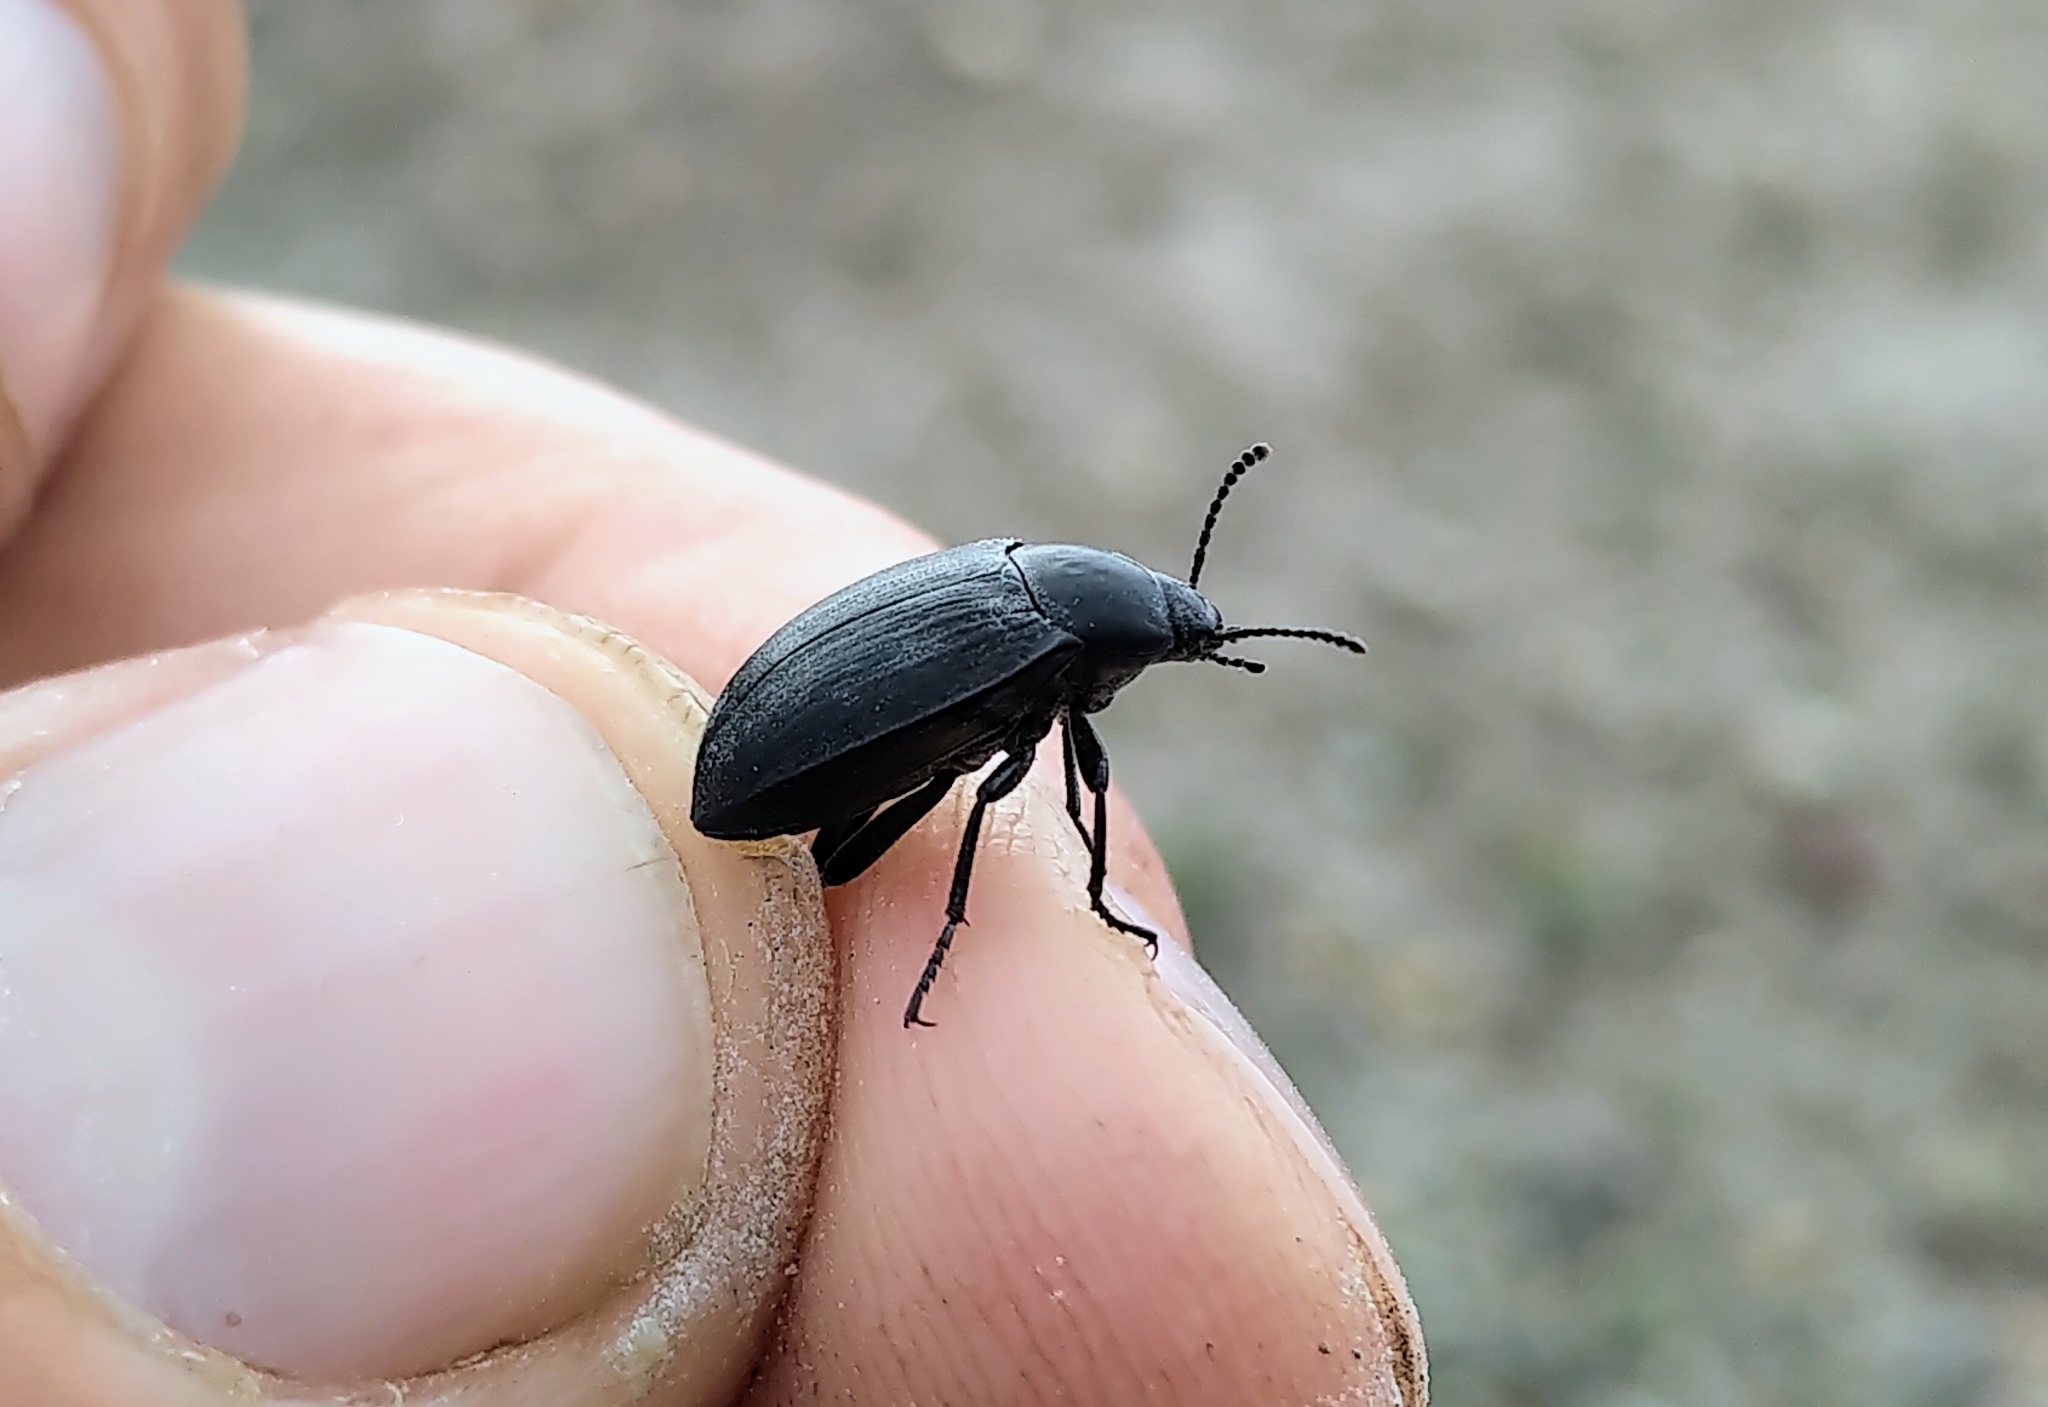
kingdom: Animalia
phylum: Arthropoda
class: Insecta
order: Coleoptera
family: Tenebrionidae
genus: Eleodes
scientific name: Eleodes opaca
